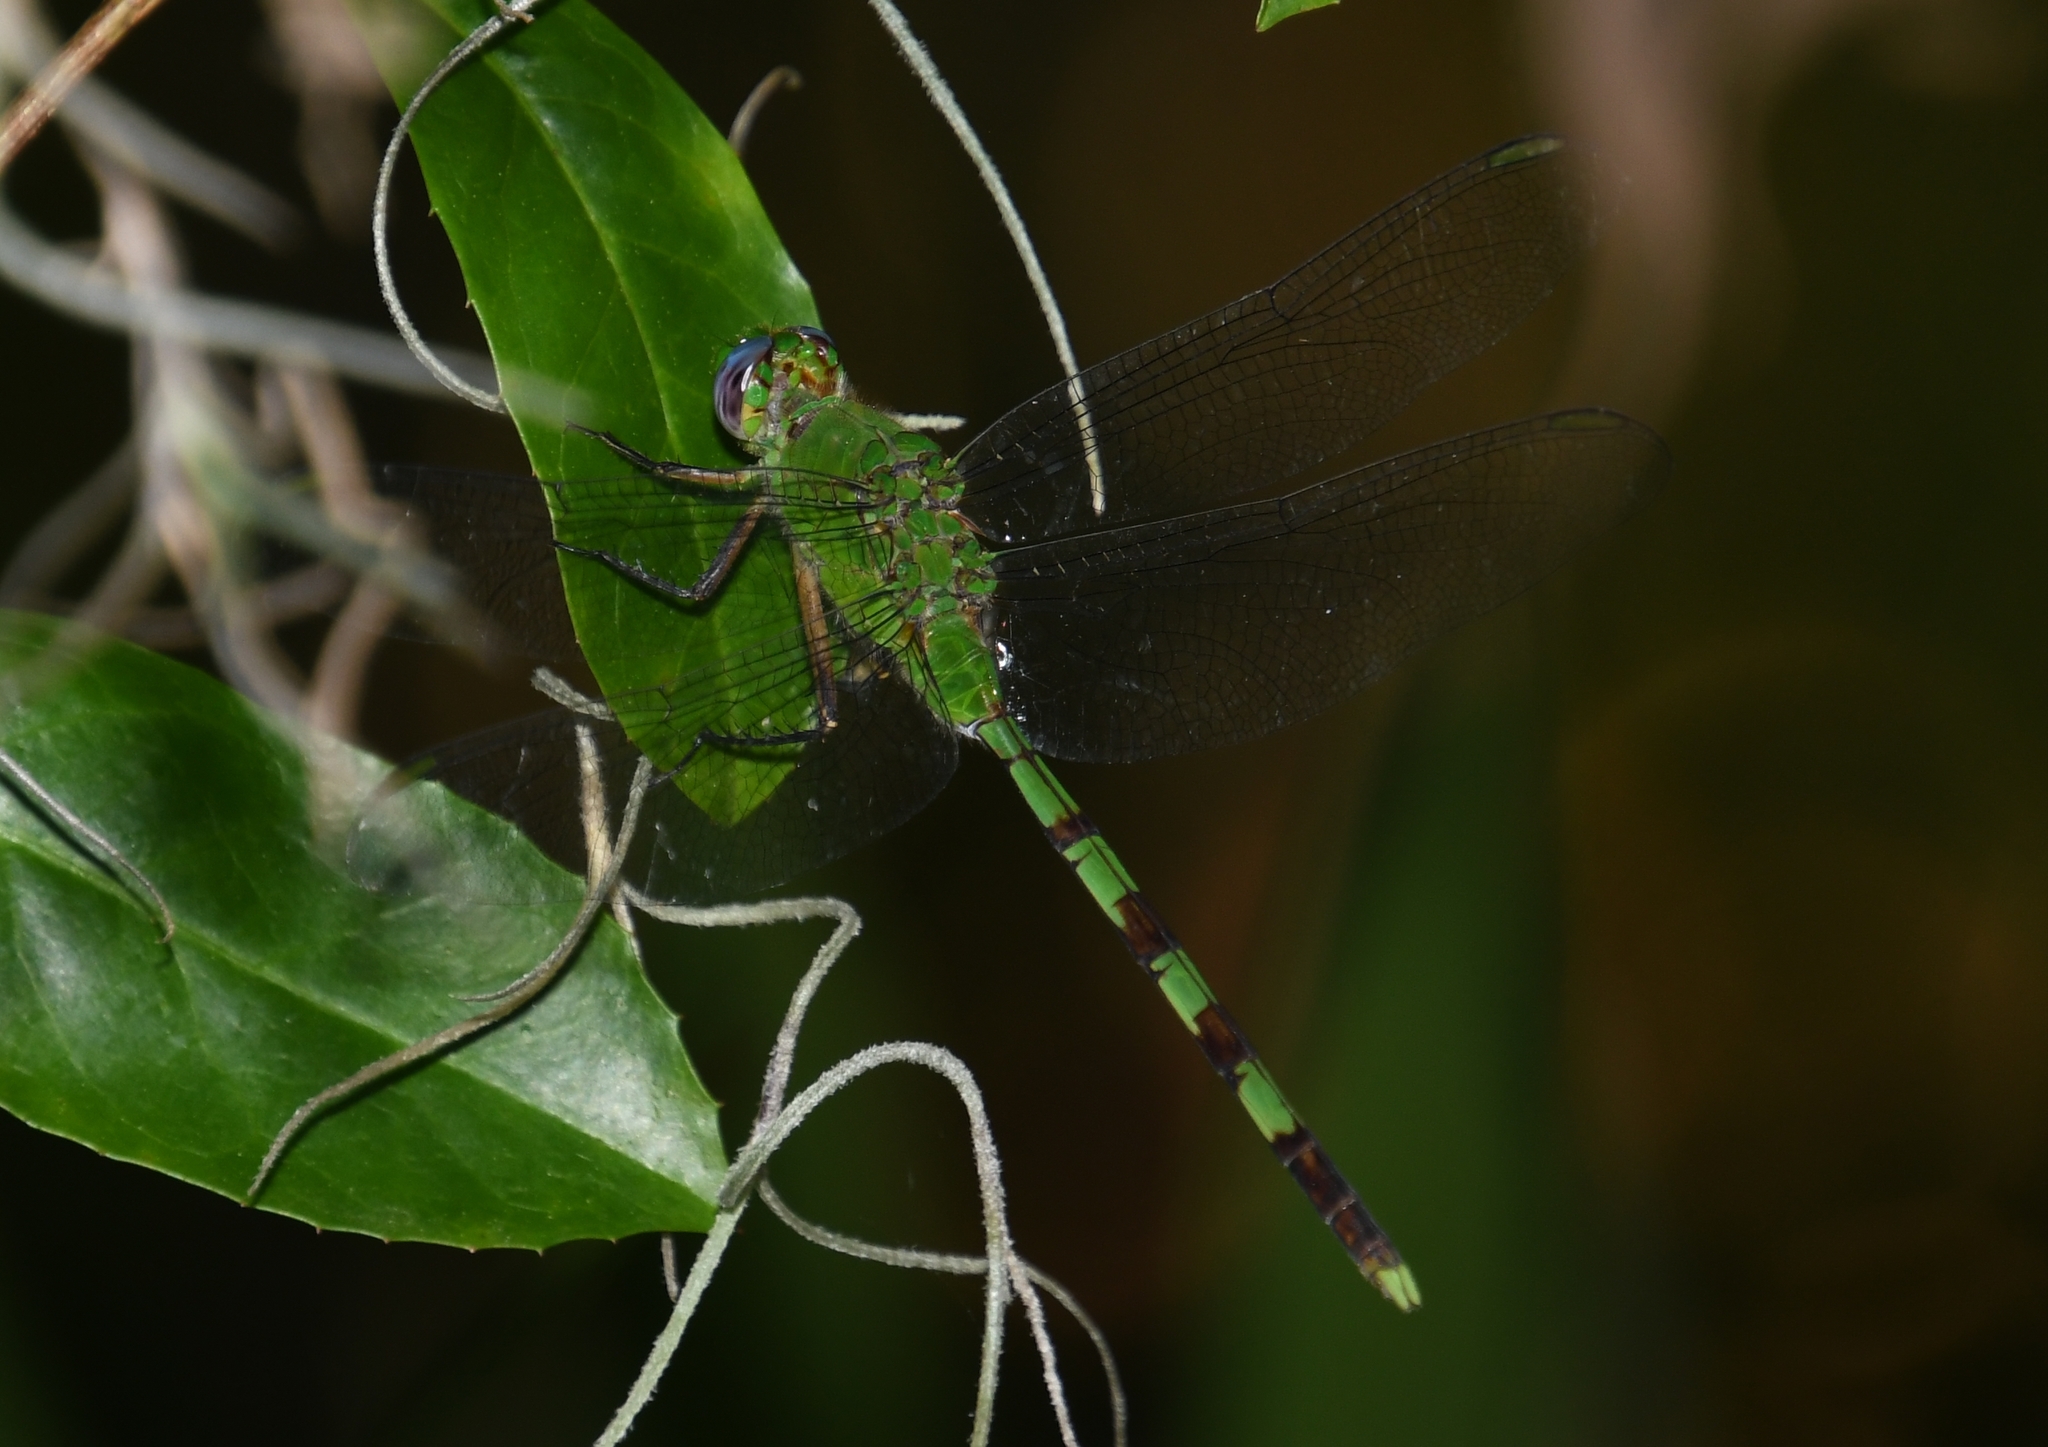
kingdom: Animalia
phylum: Arthropoda
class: Insecta
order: Odonata
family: Libellulidae
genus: Erythemis
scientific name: Erythemis vesiculosa
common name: Great pondhawk
